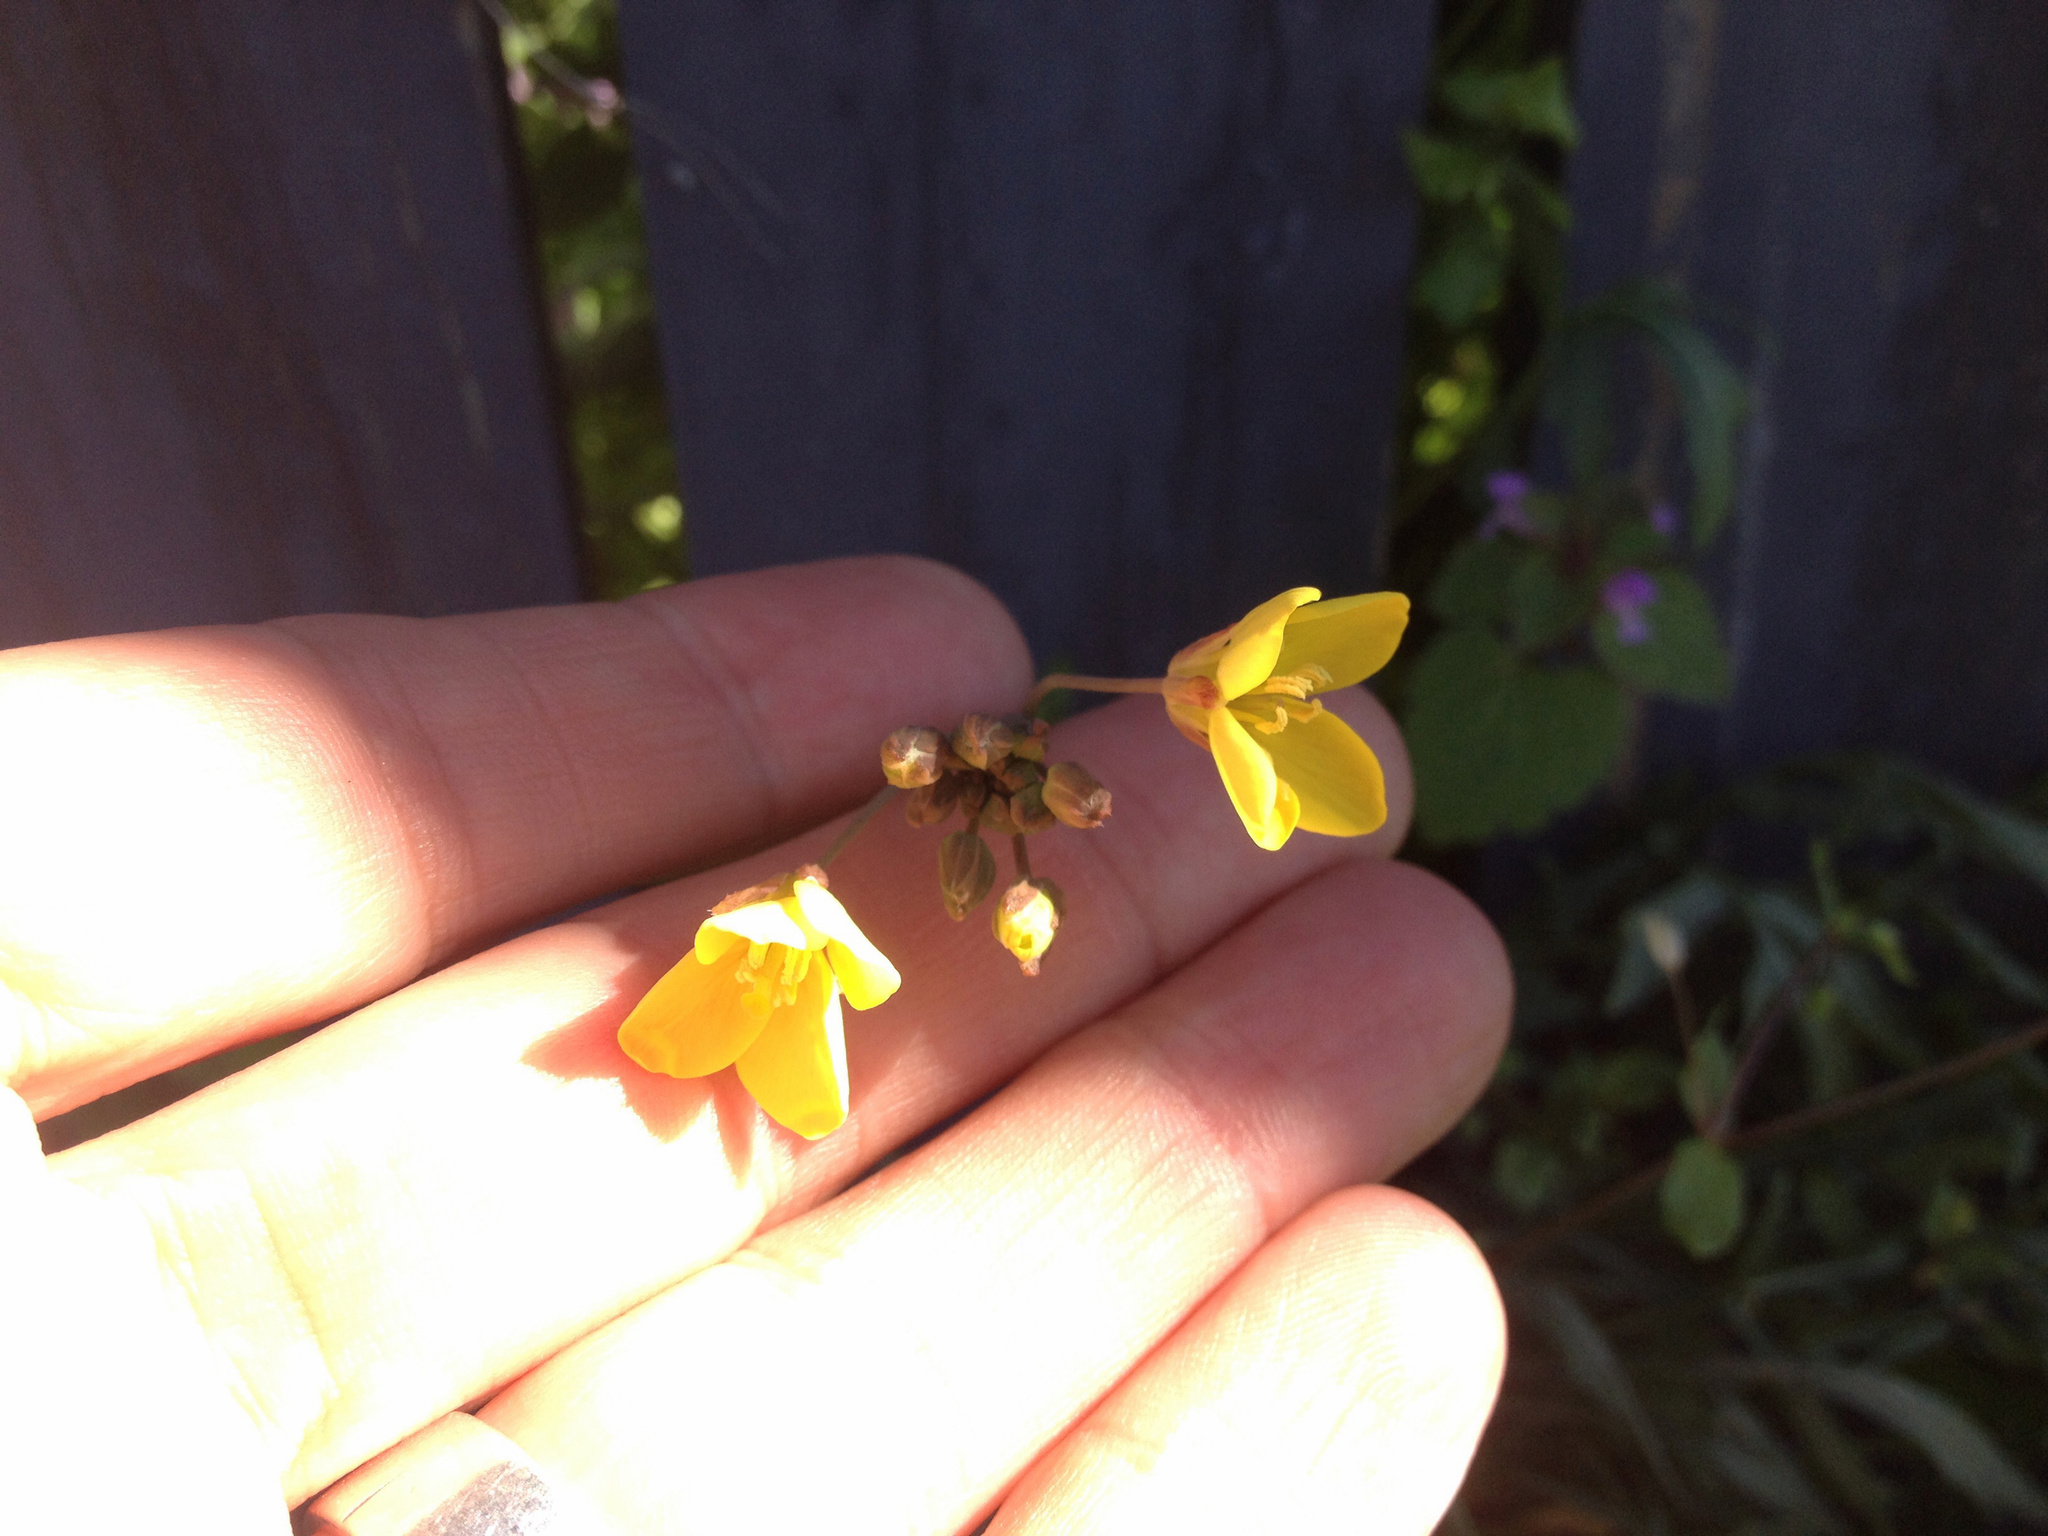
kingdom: Plantae
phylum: Tracheophyta
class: Magnoliopsida
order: Brassicales
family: Brassicaceae
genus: Diplotaxis
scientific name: Diplotaxis tenuifolia
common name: Perennial wall-rocket
